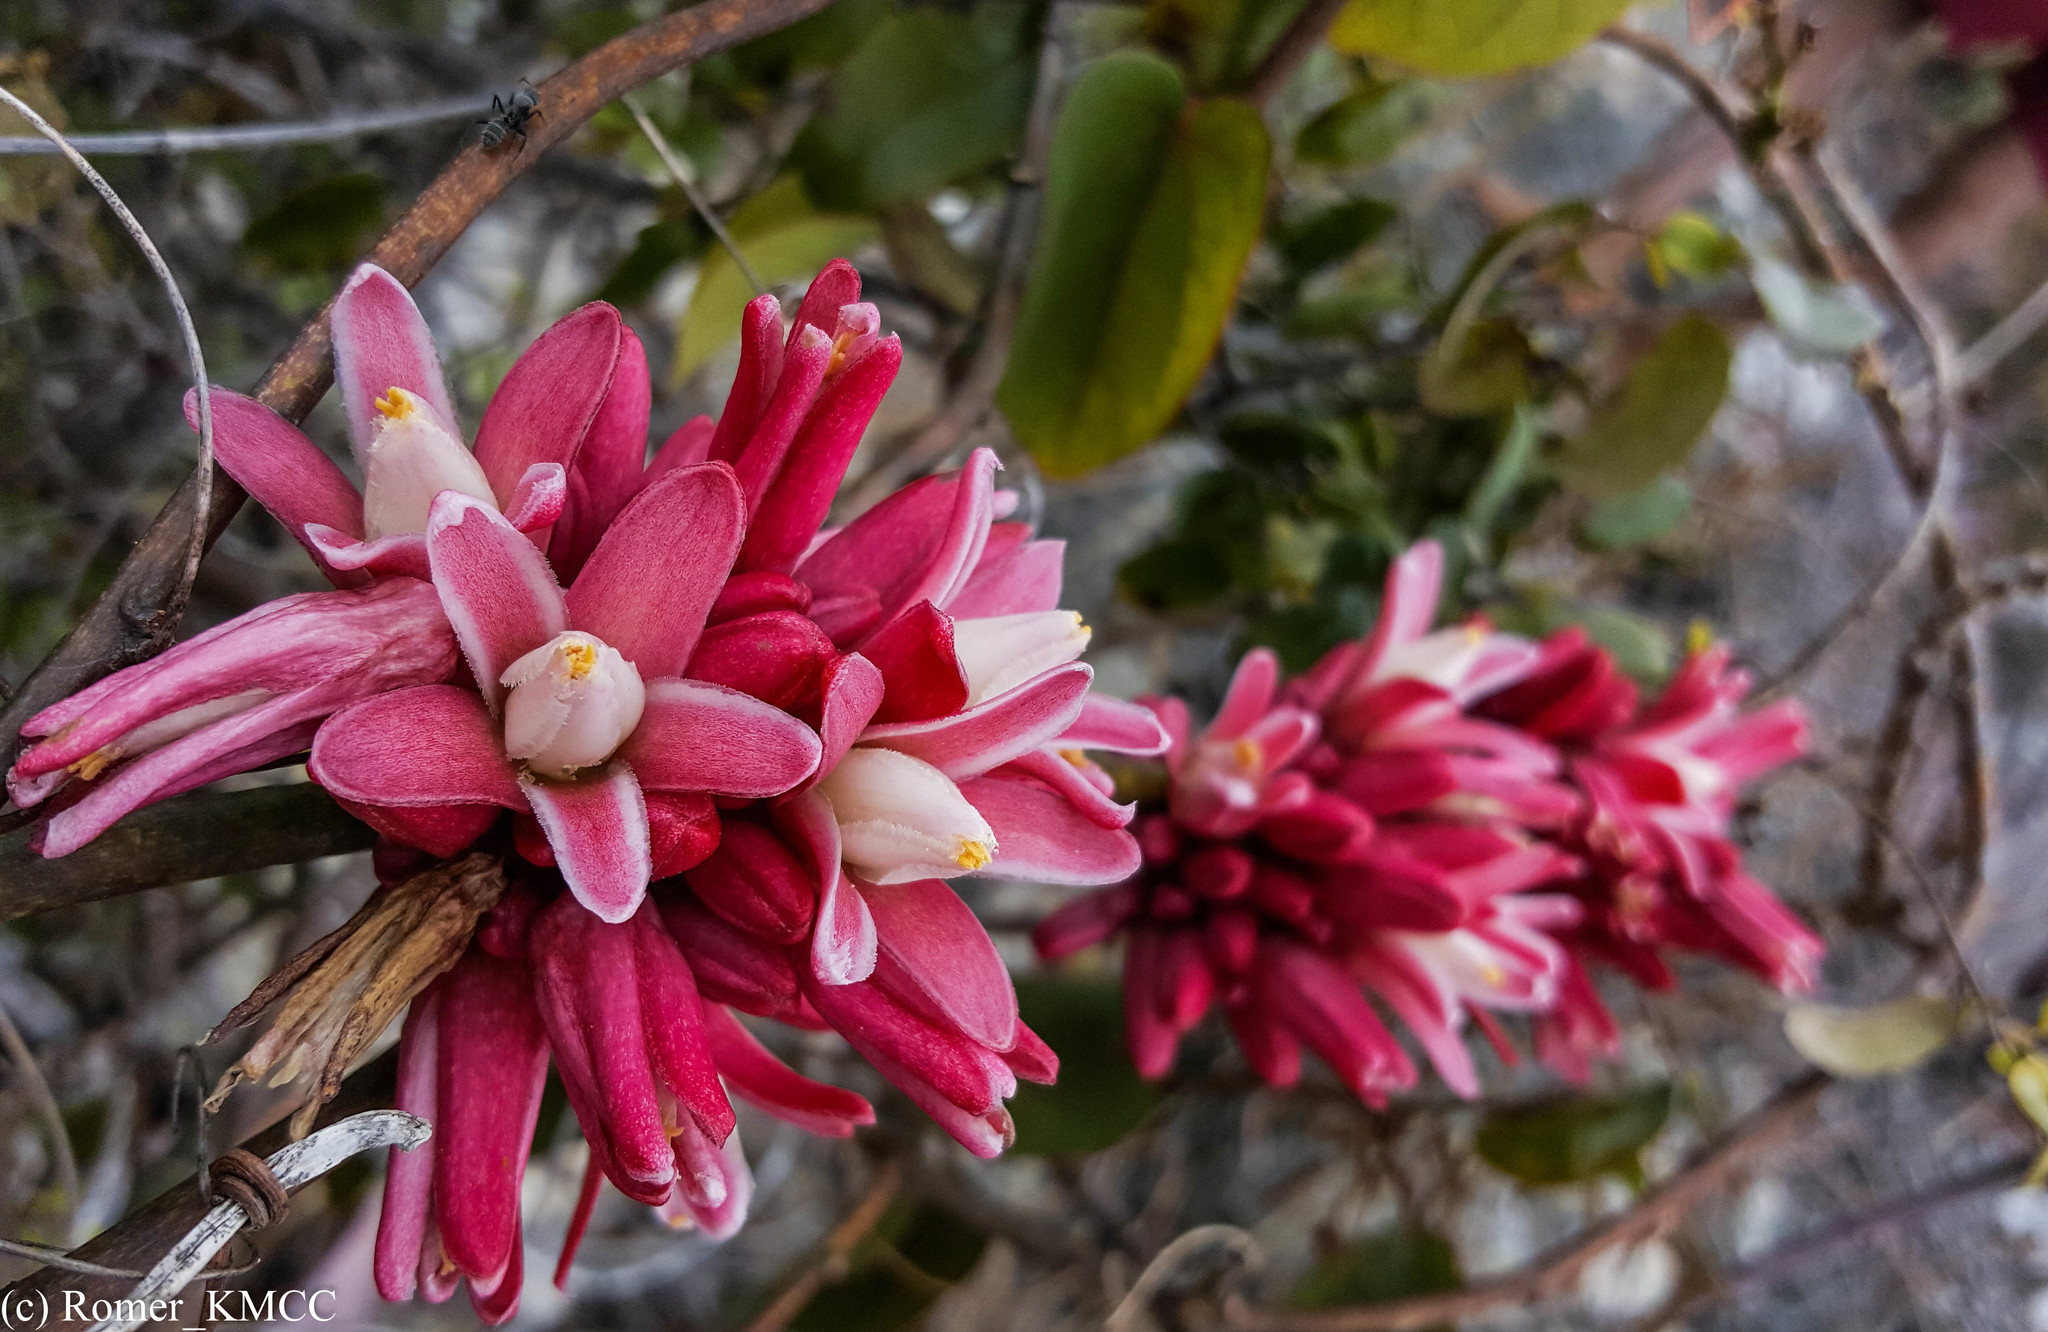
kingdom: Plantae
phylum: Tracheophyta
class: Magnoliopsida
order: Malpighiales
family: Passifloraceae
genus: Adenia
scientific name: Adenia densiflora
